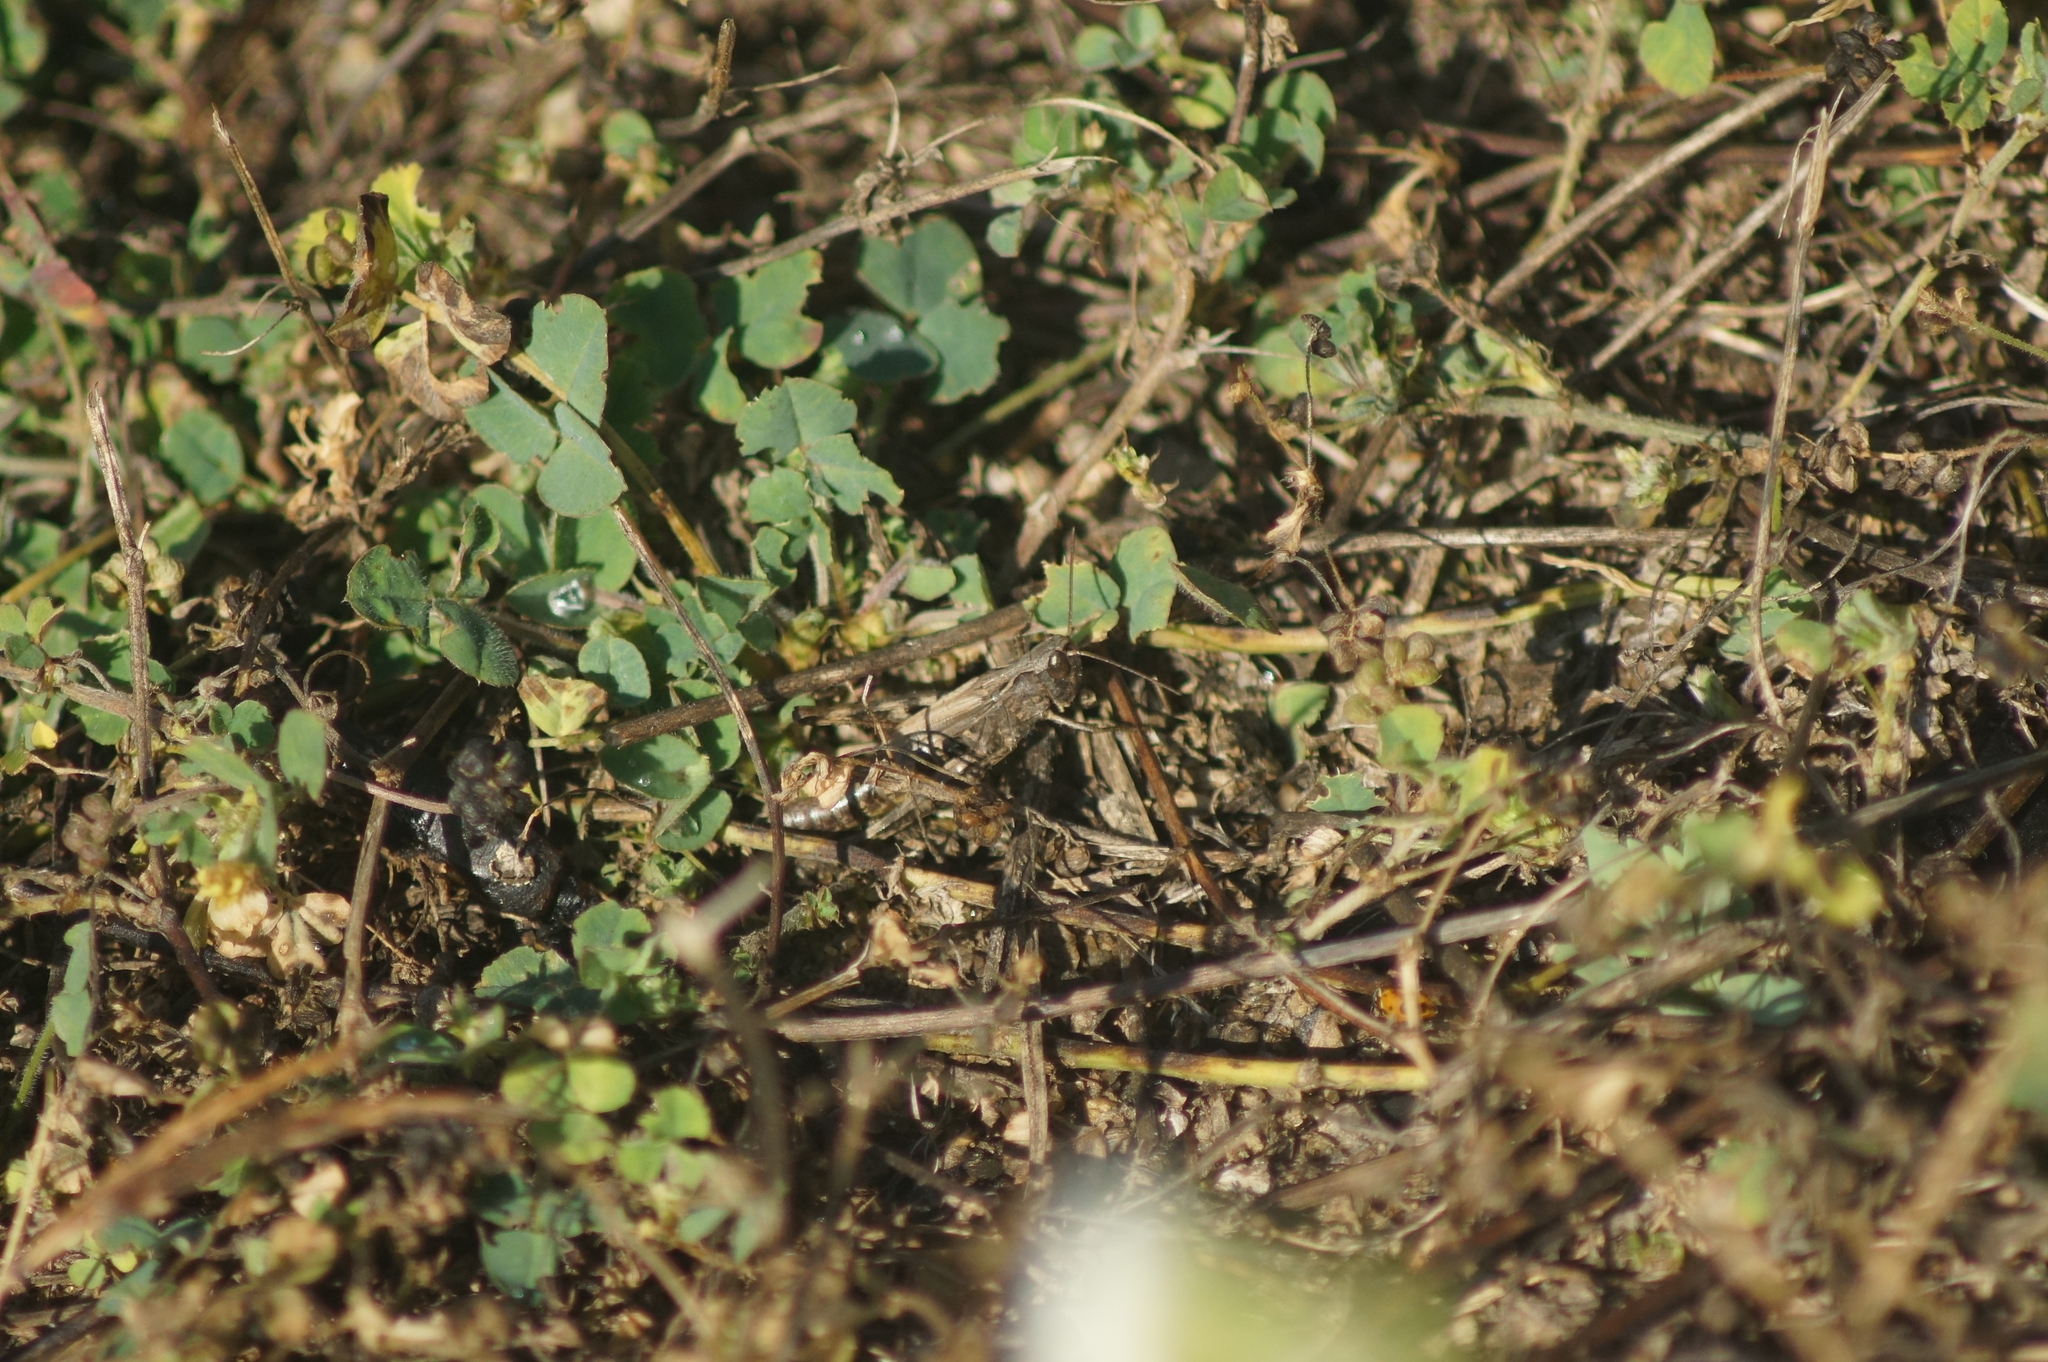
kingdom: Animalia
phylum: Arthropoda
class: Insecta
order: Orthoptera
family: Acrididae
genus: Chorthippus
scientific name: Chorthippus macrocerus
